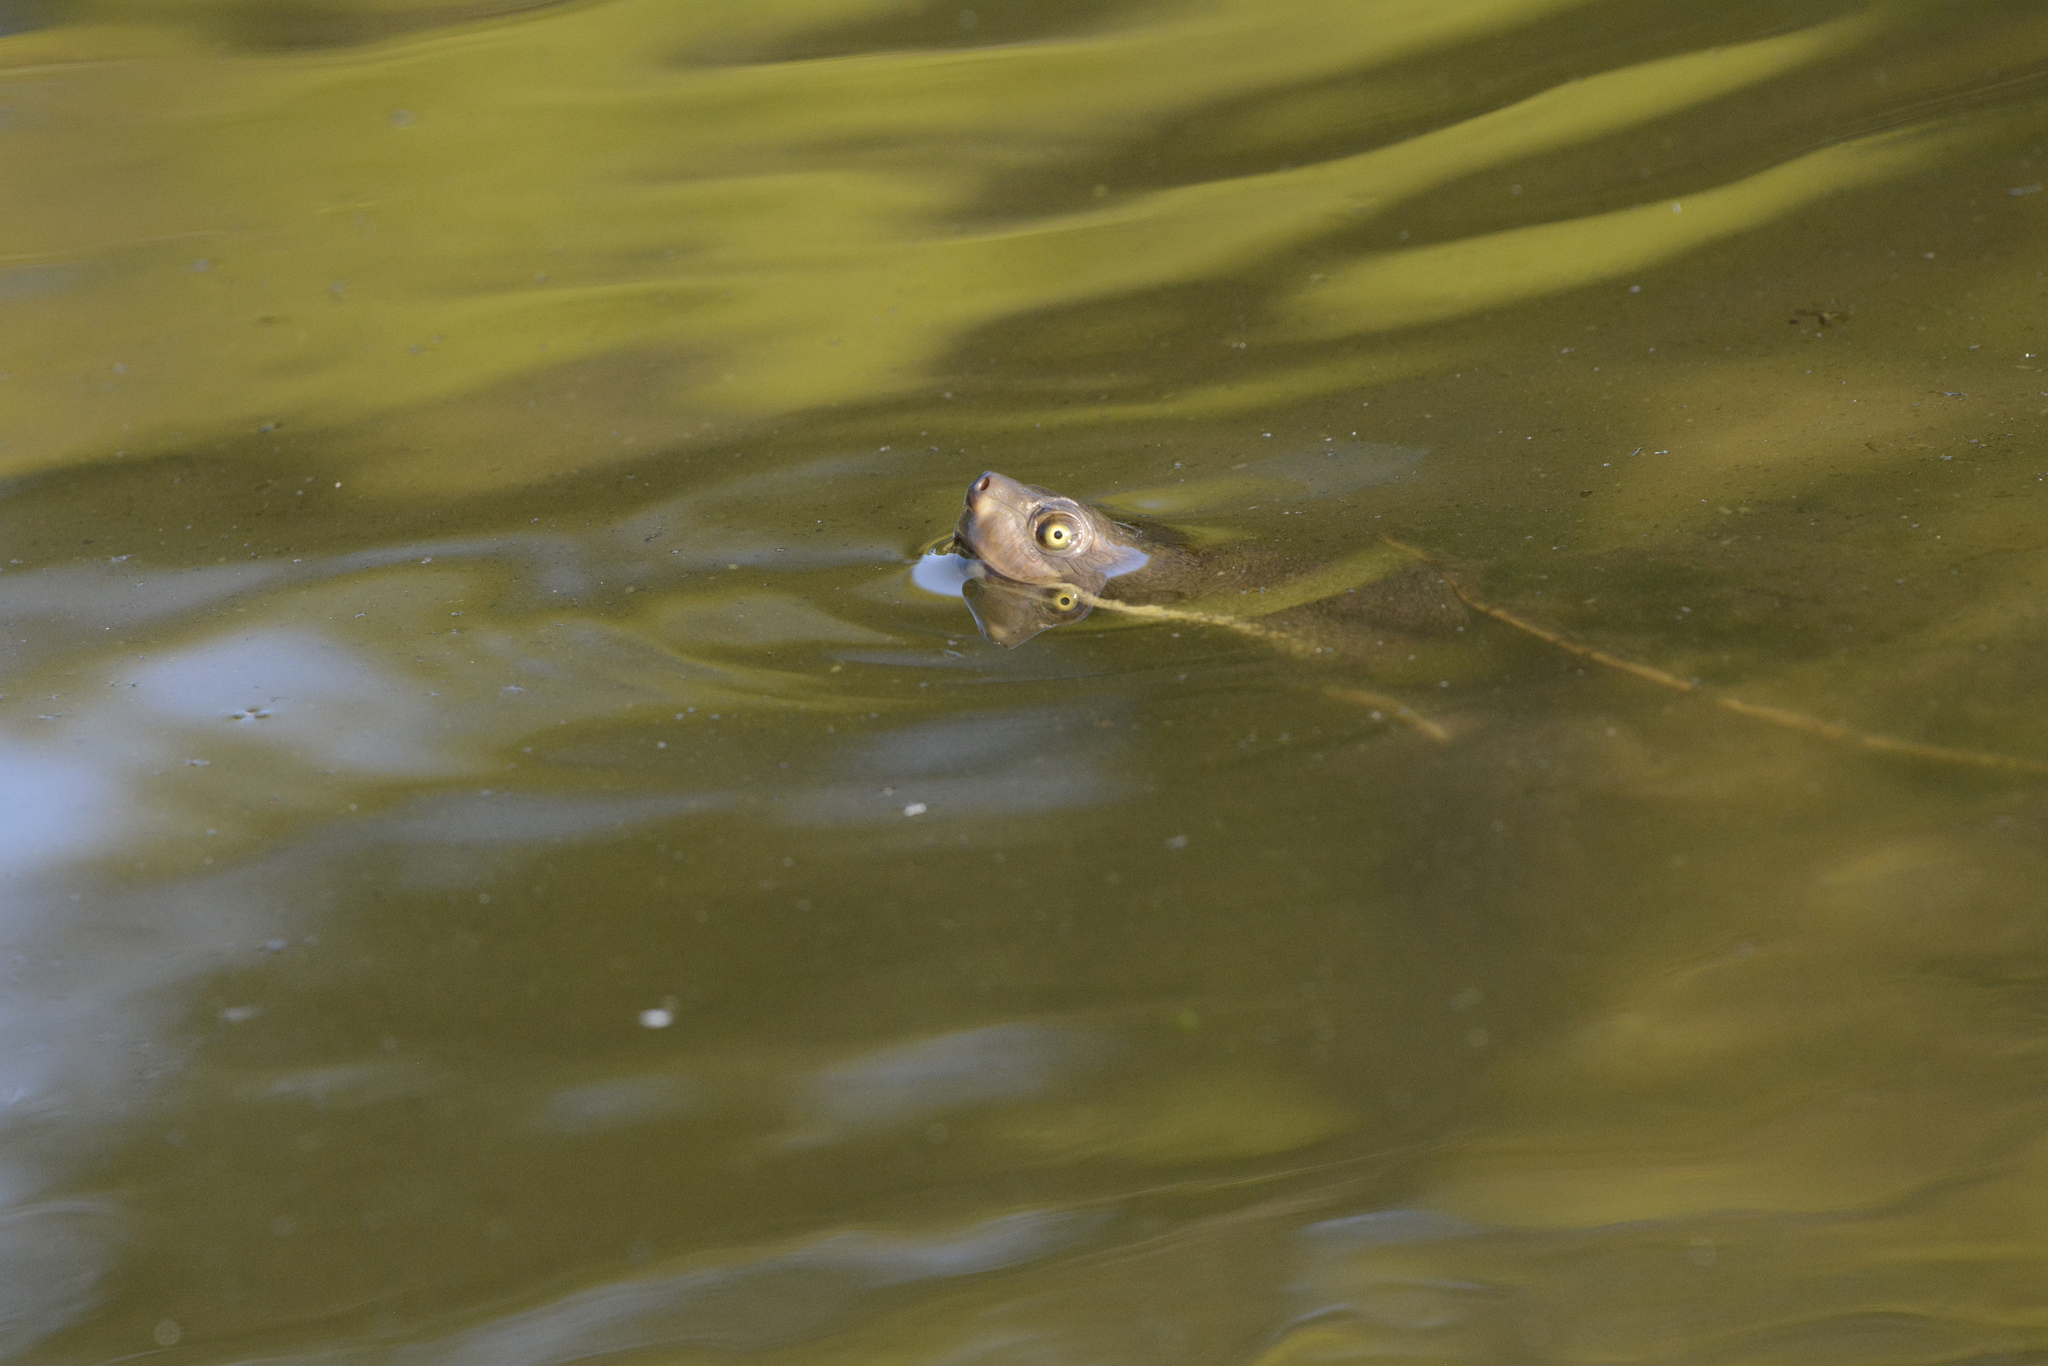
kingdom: Animalia
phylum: Chordata
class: Testudines
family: Chelidae
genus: Emydura
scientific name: Emydura macquarii
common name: Murray river turtle
